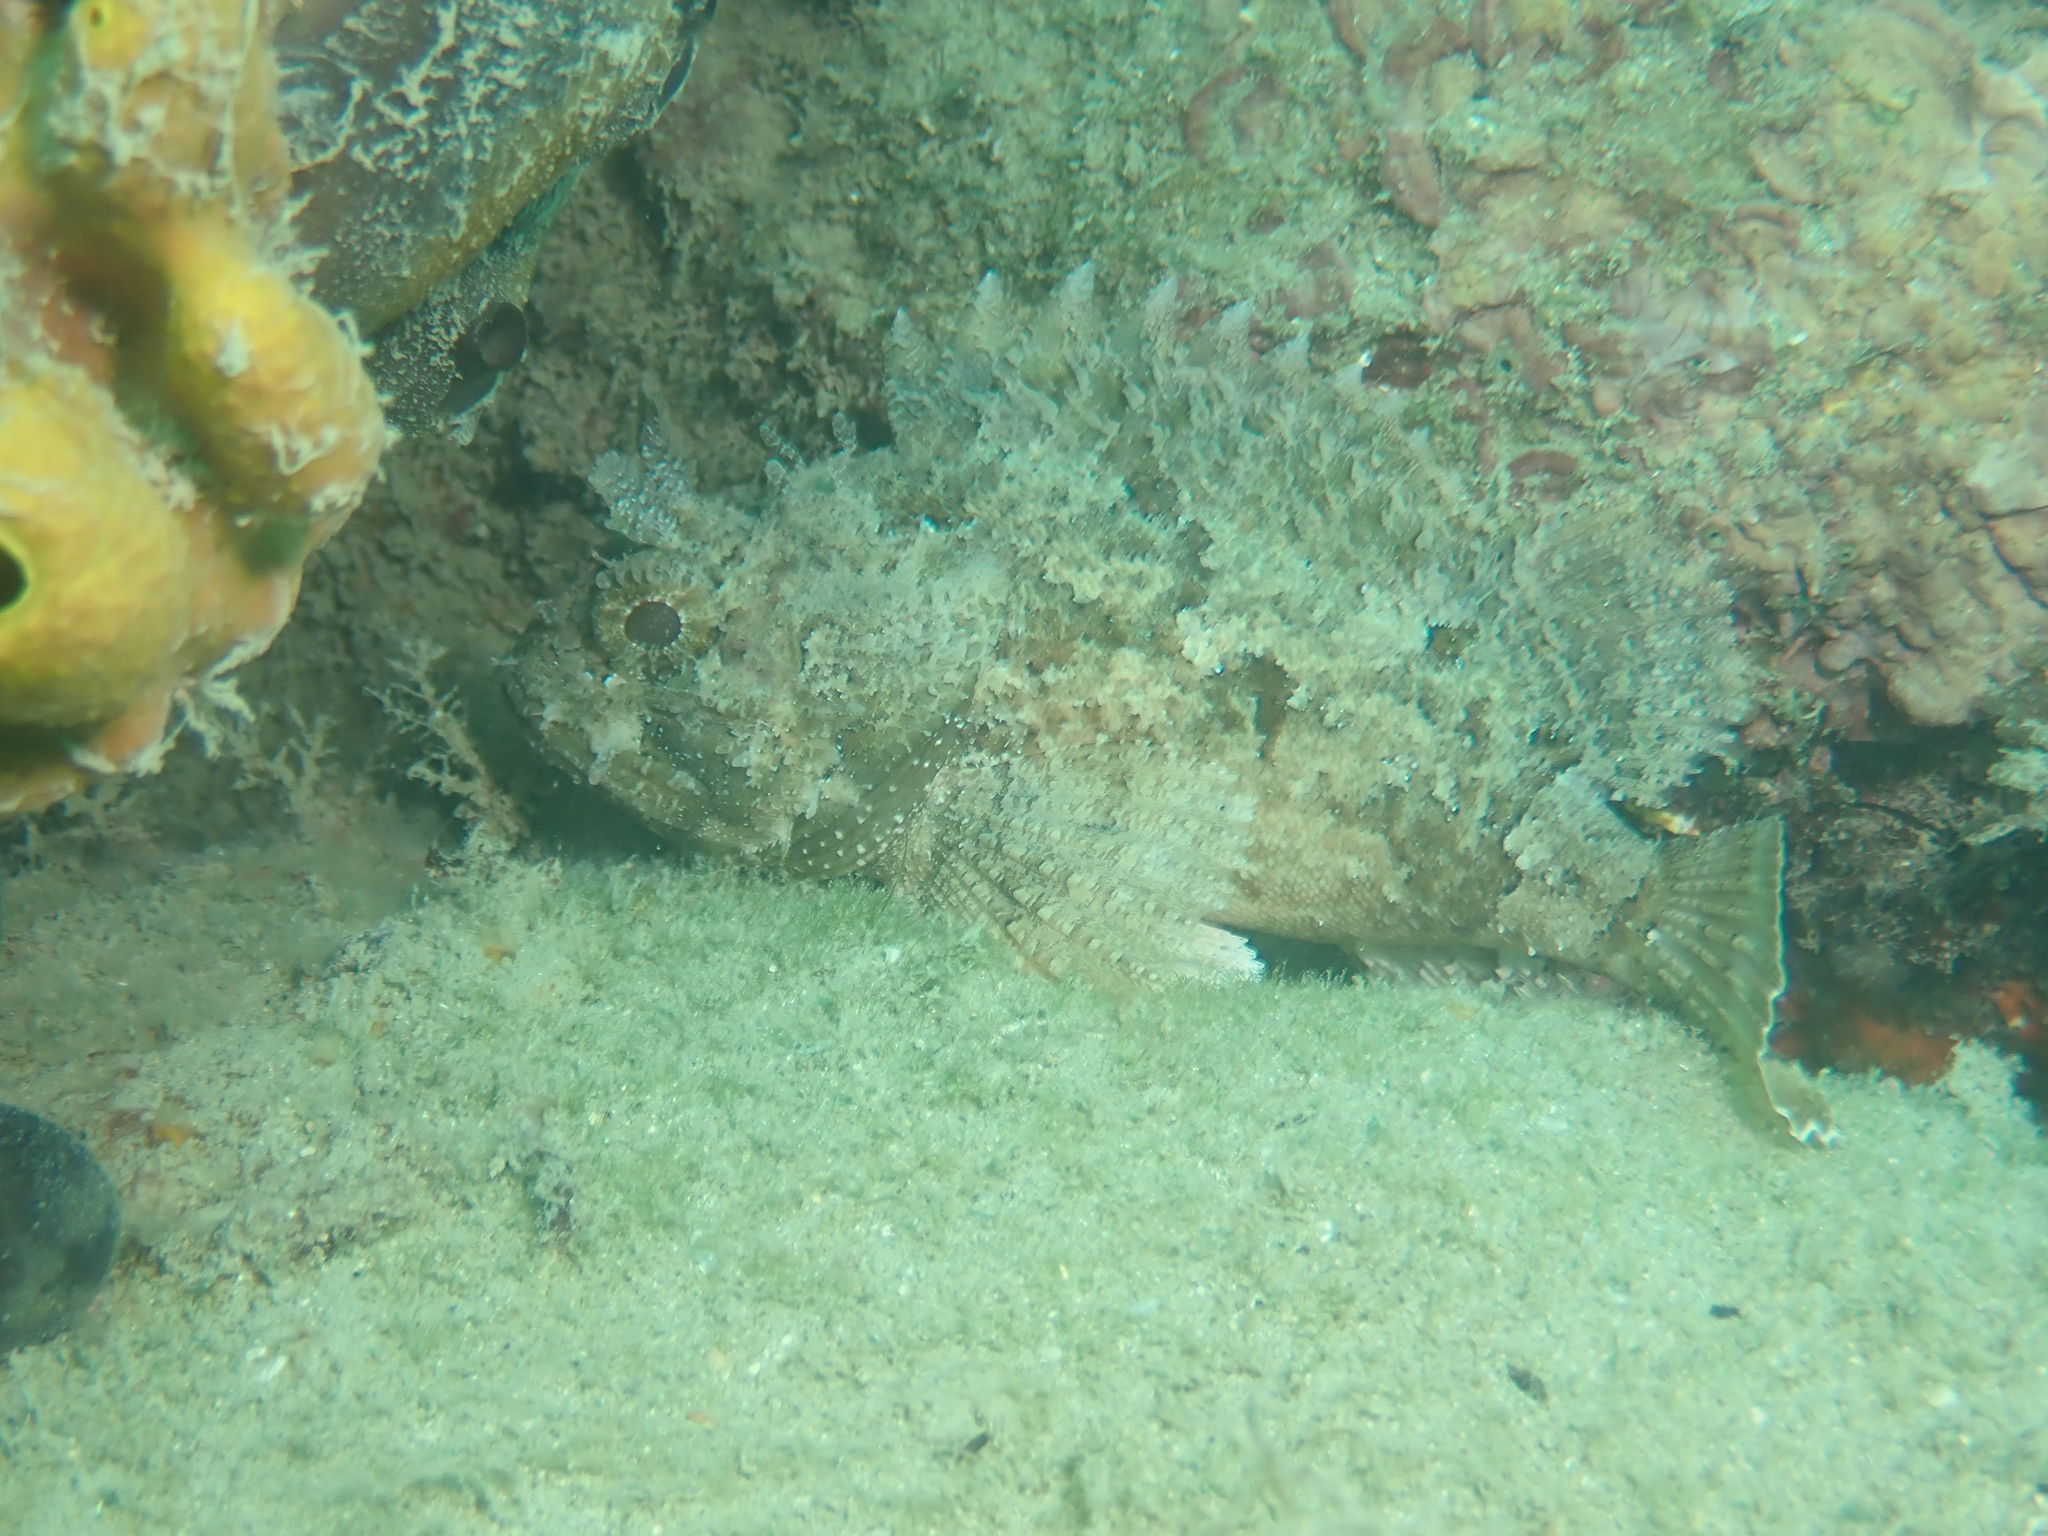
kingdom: Animalia
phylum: Chordata
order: Scorpaeniformes
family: Scorpaenidae
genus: Scorpaena
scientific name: Scorpaena porcus
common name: Black scorpionfish
